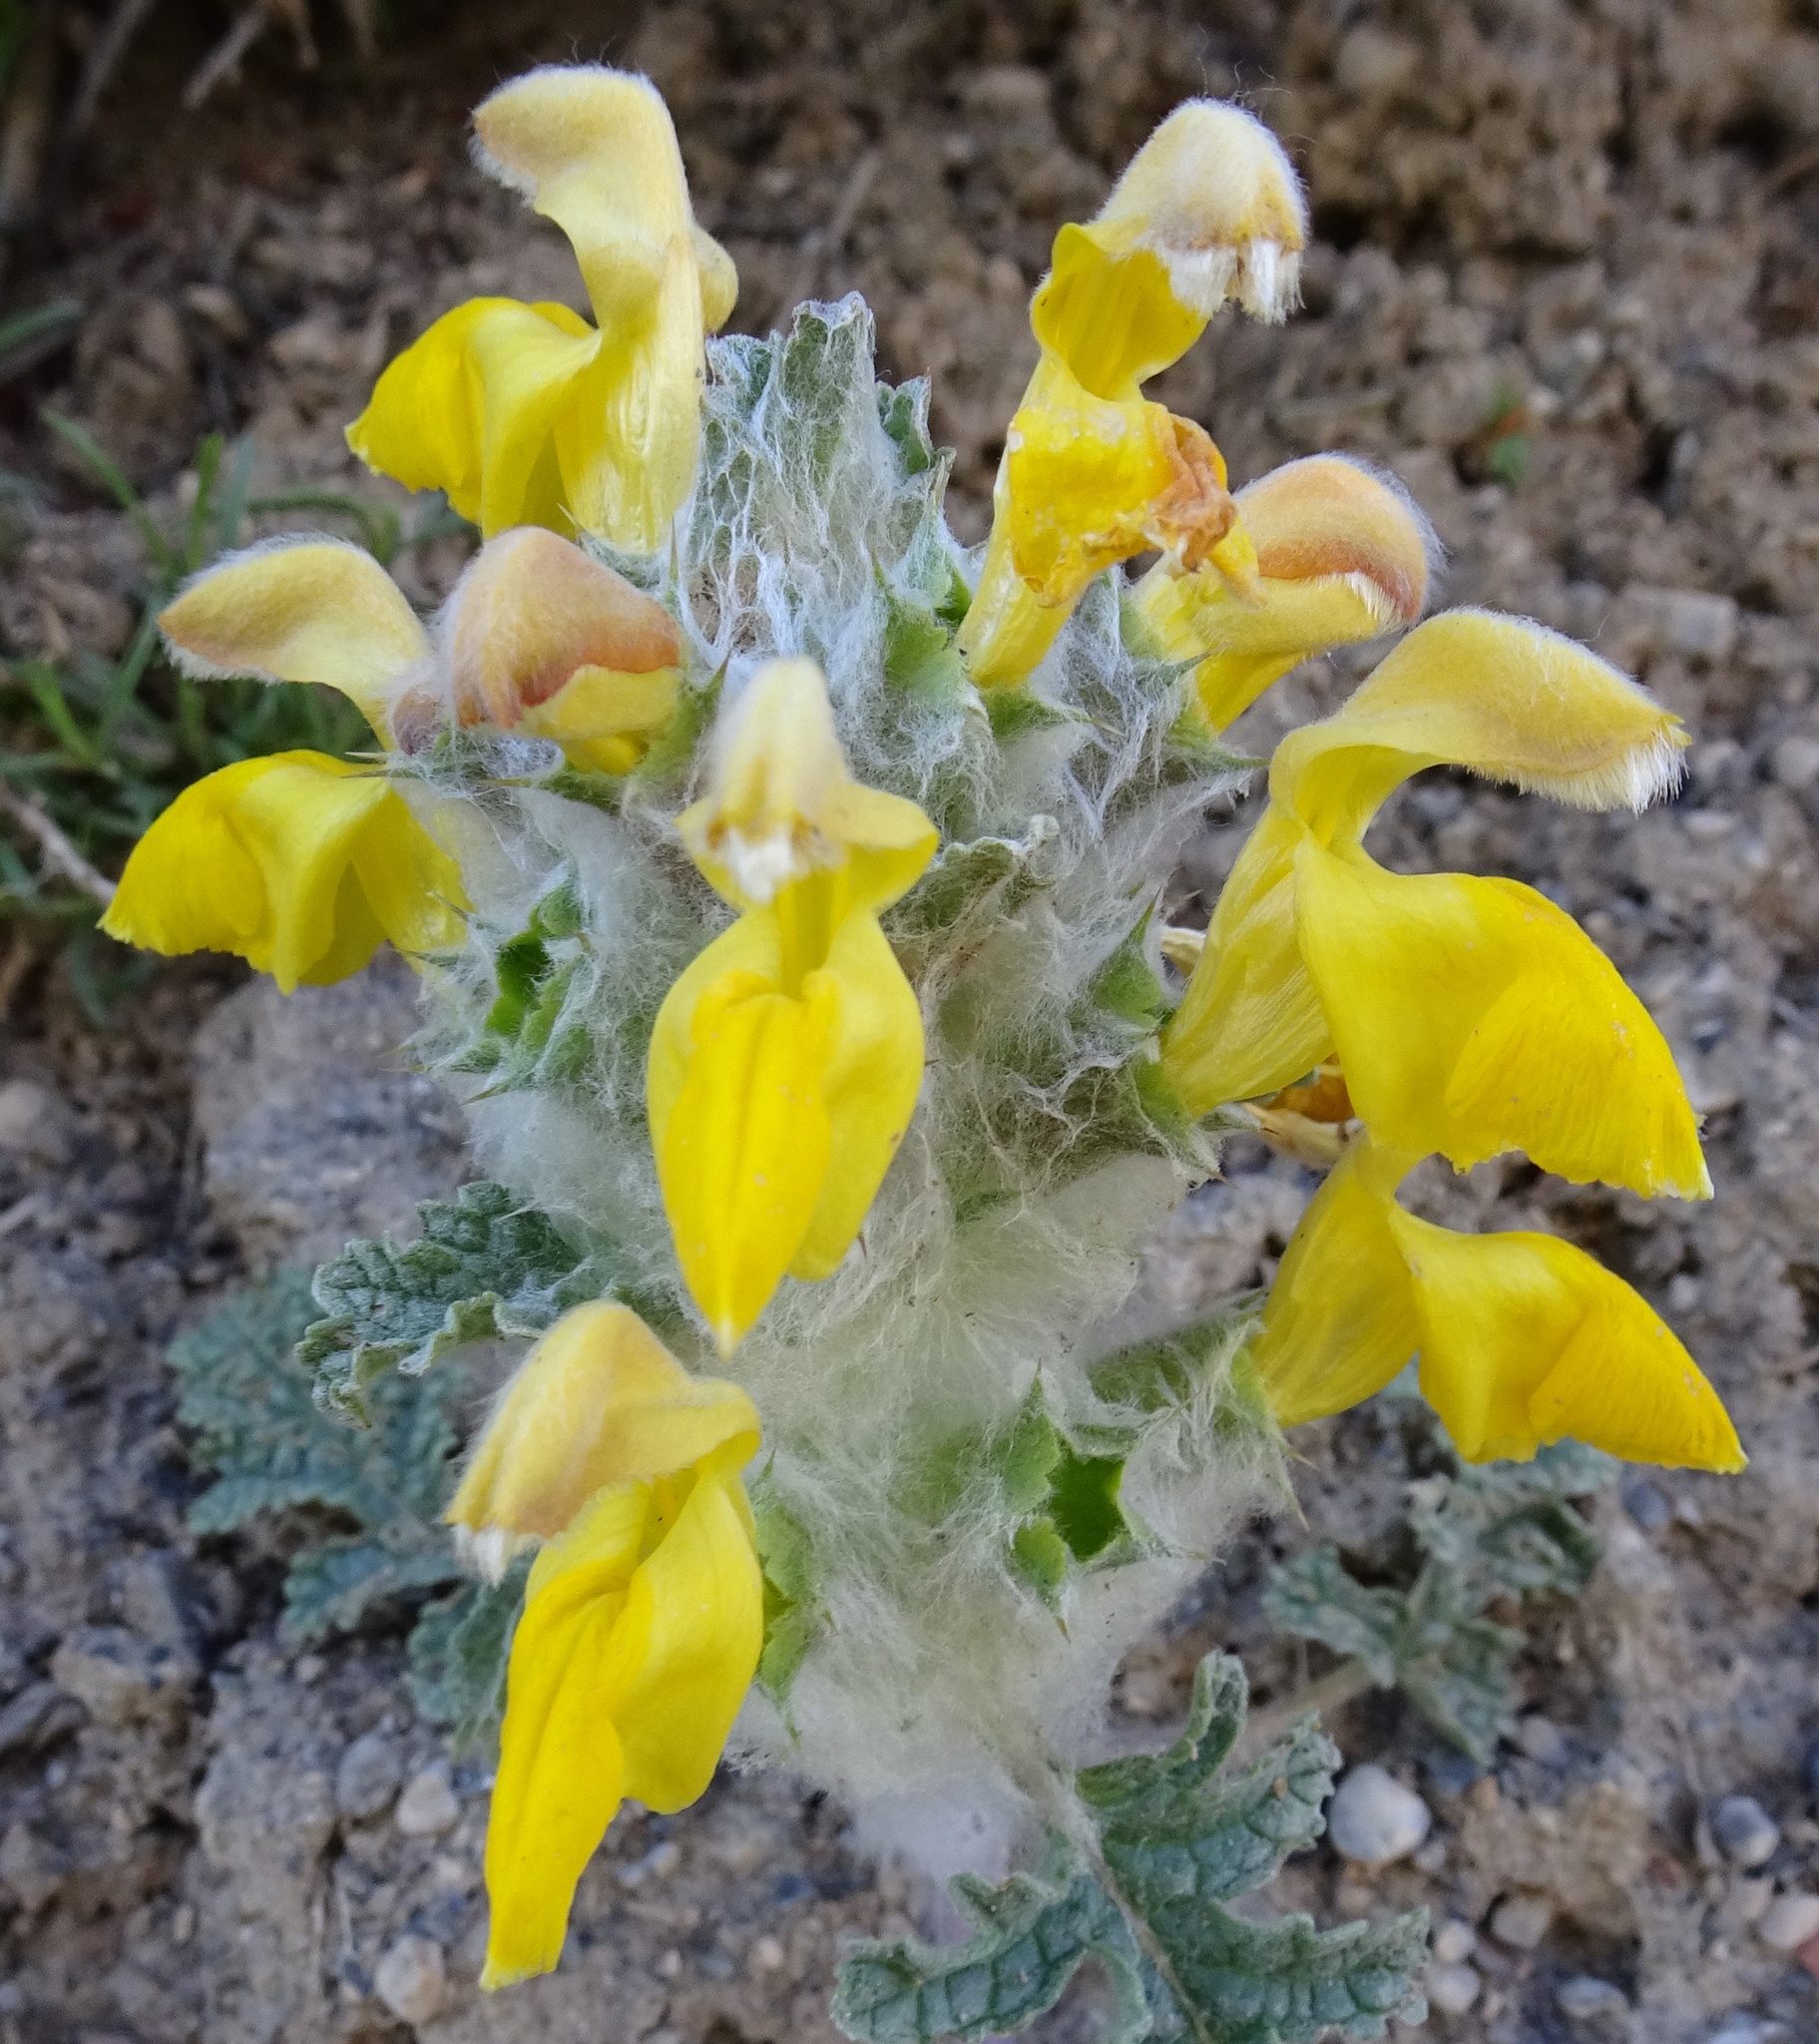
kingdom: Plantae
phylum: Tracheophyta
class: Magnoliopsida
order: Lamiales
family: Lamiaceae
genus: Phlomoides
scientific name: Phlomoides speciosa
